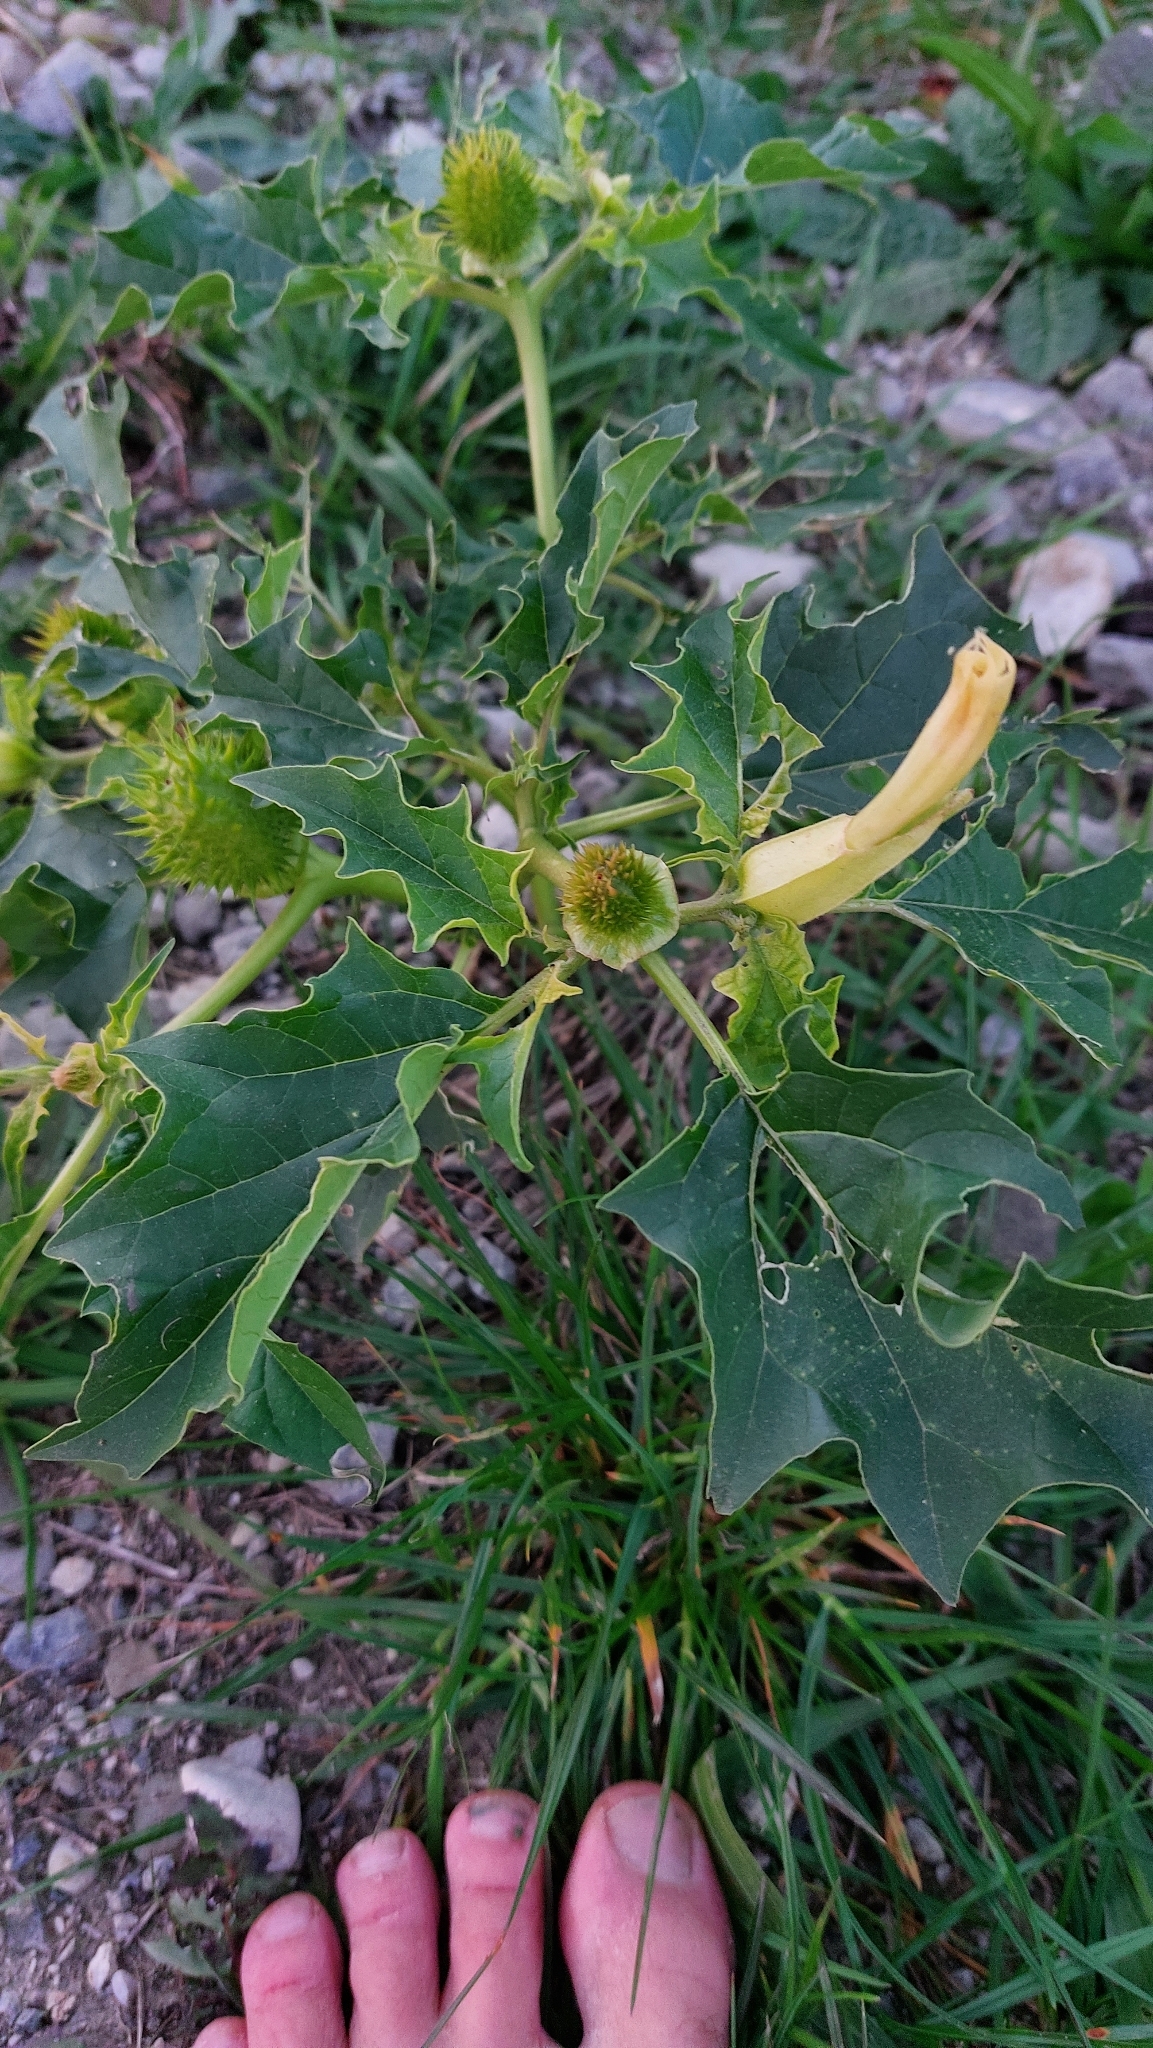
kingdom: Plantae
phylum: Tracheophyta
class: Magnoliopsida
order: Solanales
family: Solanaceae
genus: Datura
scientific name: Datura stramonium
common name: Thorn-apple
